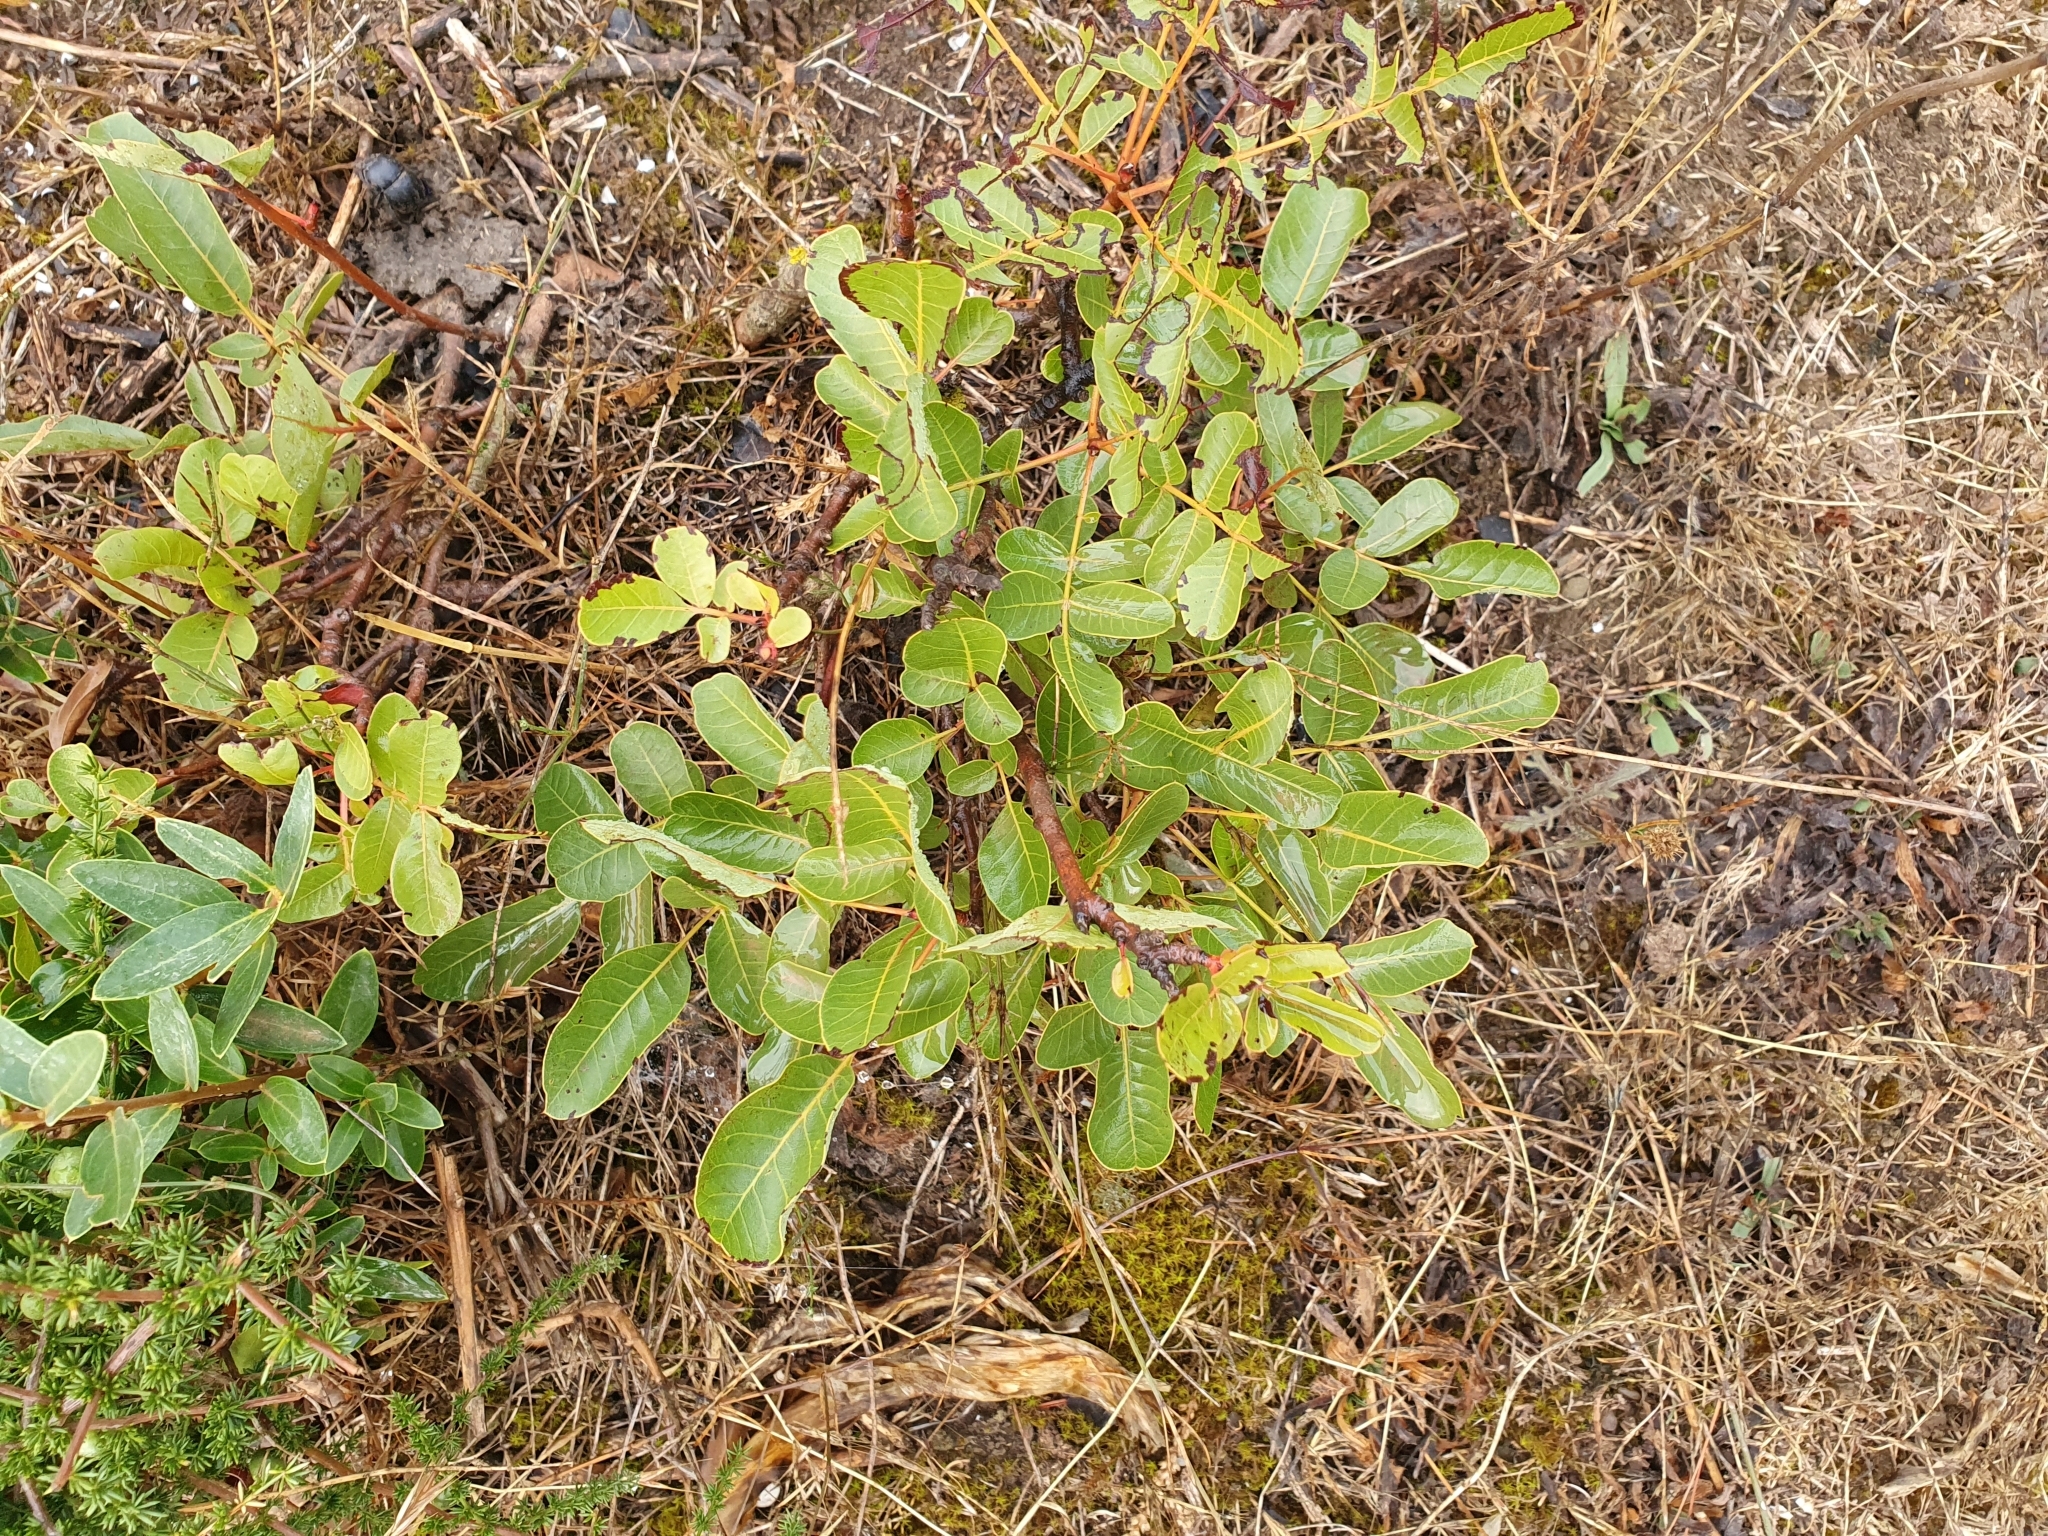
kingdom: Plantae
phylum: Tracheophyta
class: Magnoliopsida
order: Sapindales
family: Anacardiaceae
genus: Pistacia
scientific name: Pistacia terebinthus
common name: Terebinth
